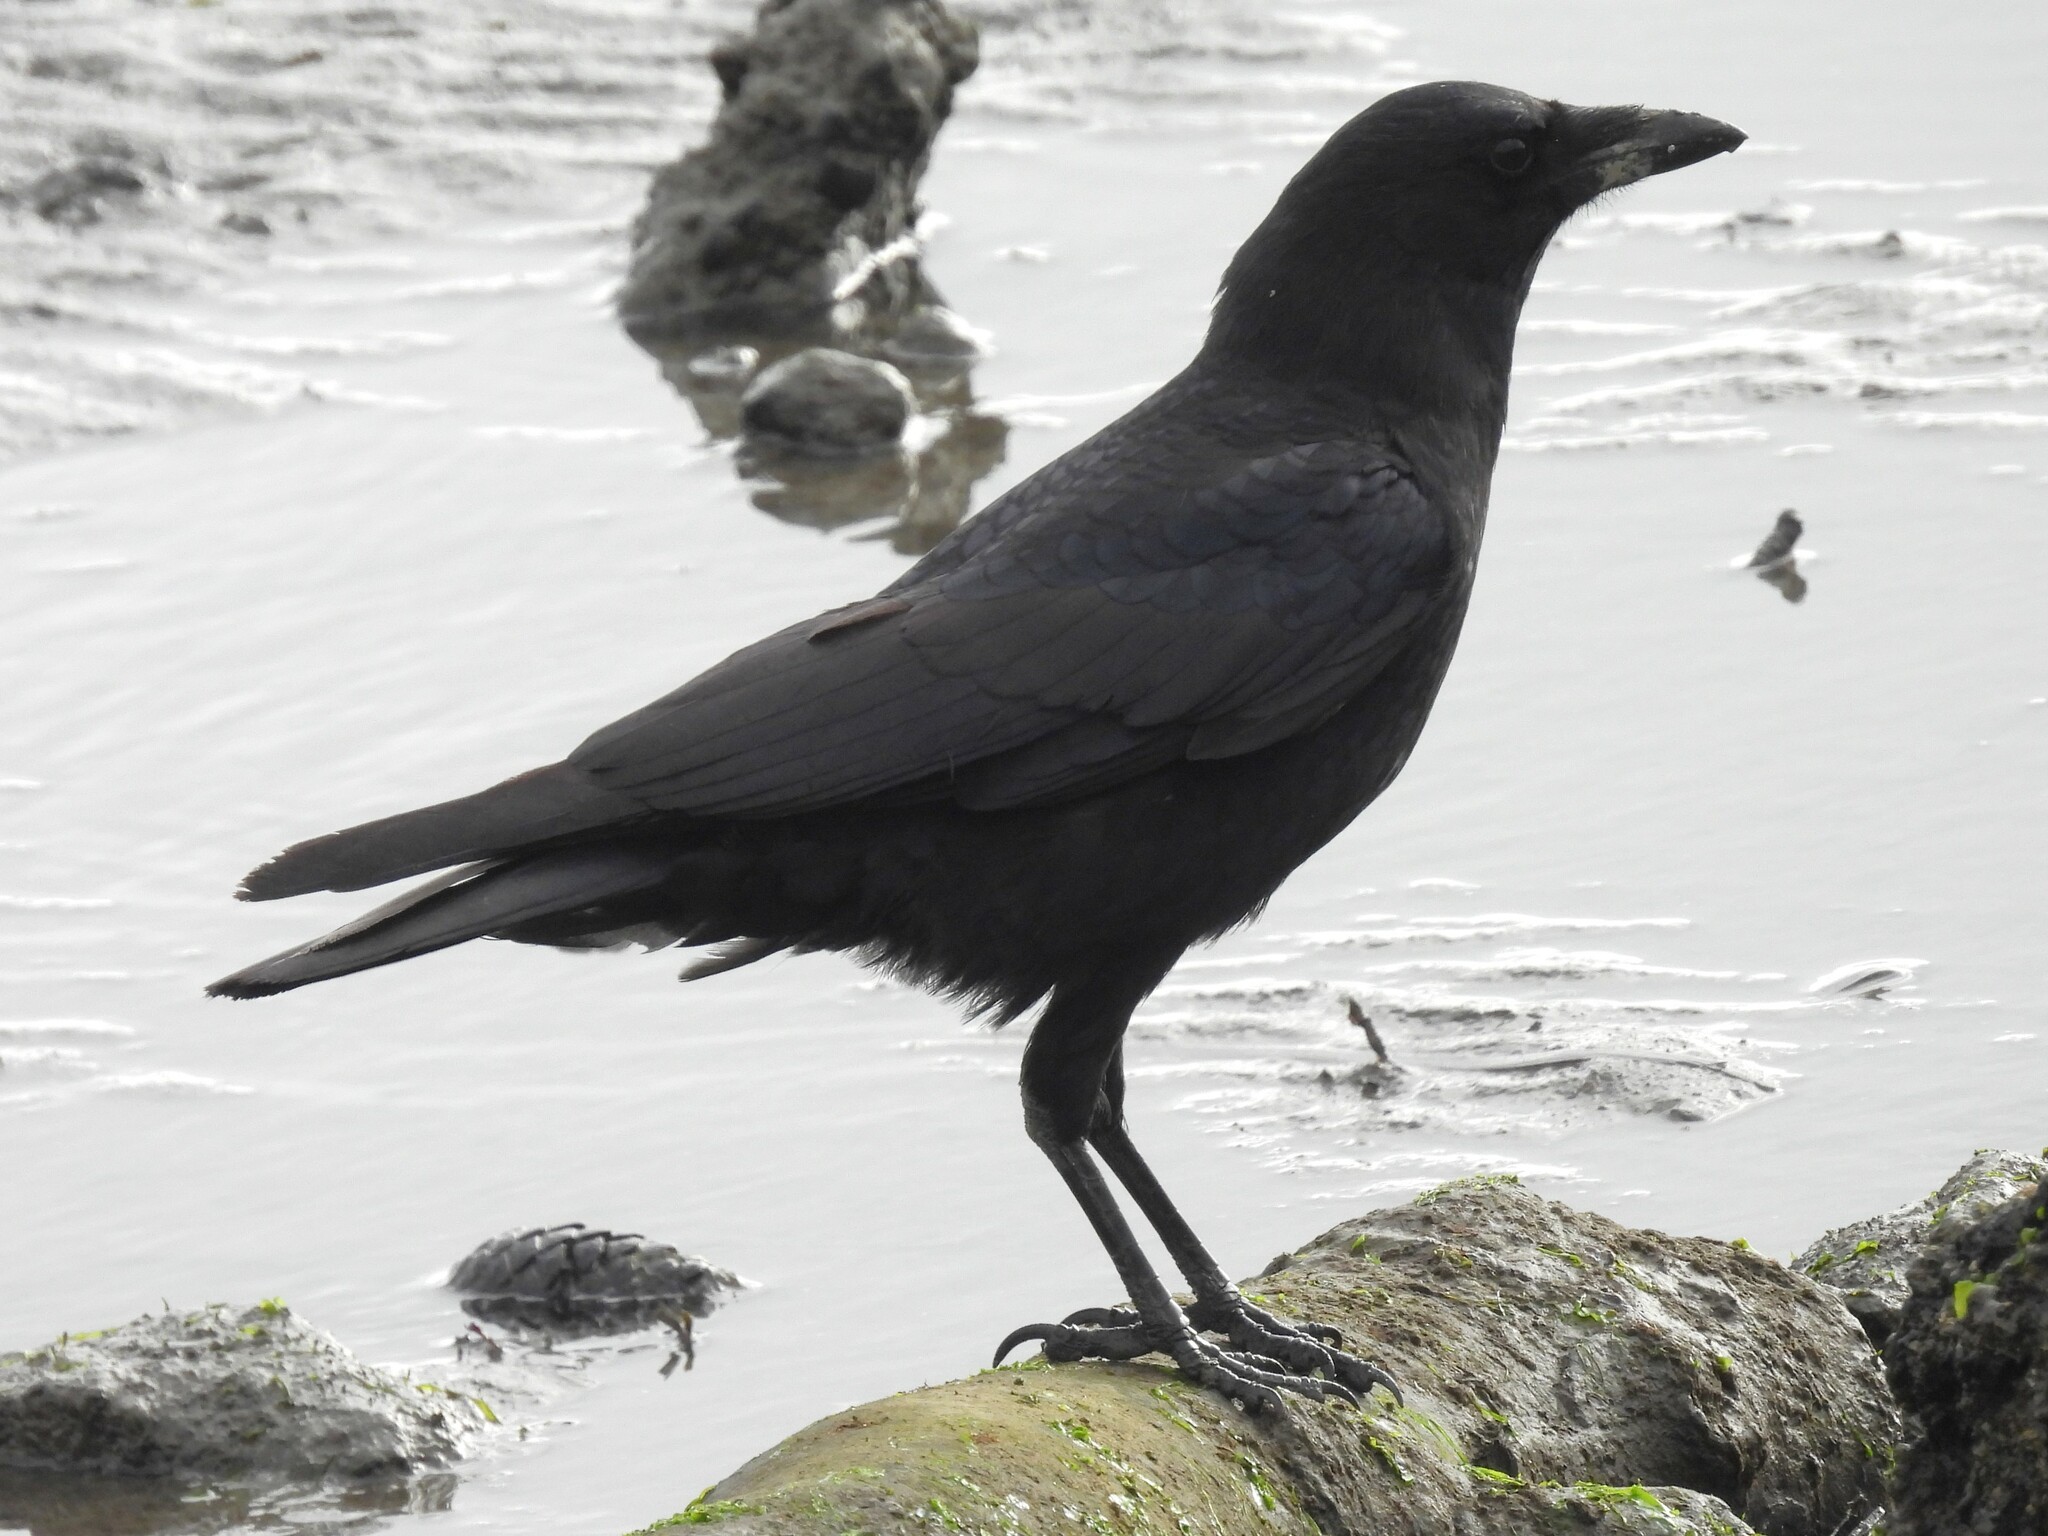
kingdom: Animalia
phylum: Chordata
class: Aves
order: Passeriformes
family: Corvidae
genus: Corvus
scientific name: Corvus brachyrhynchos
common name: American crow
